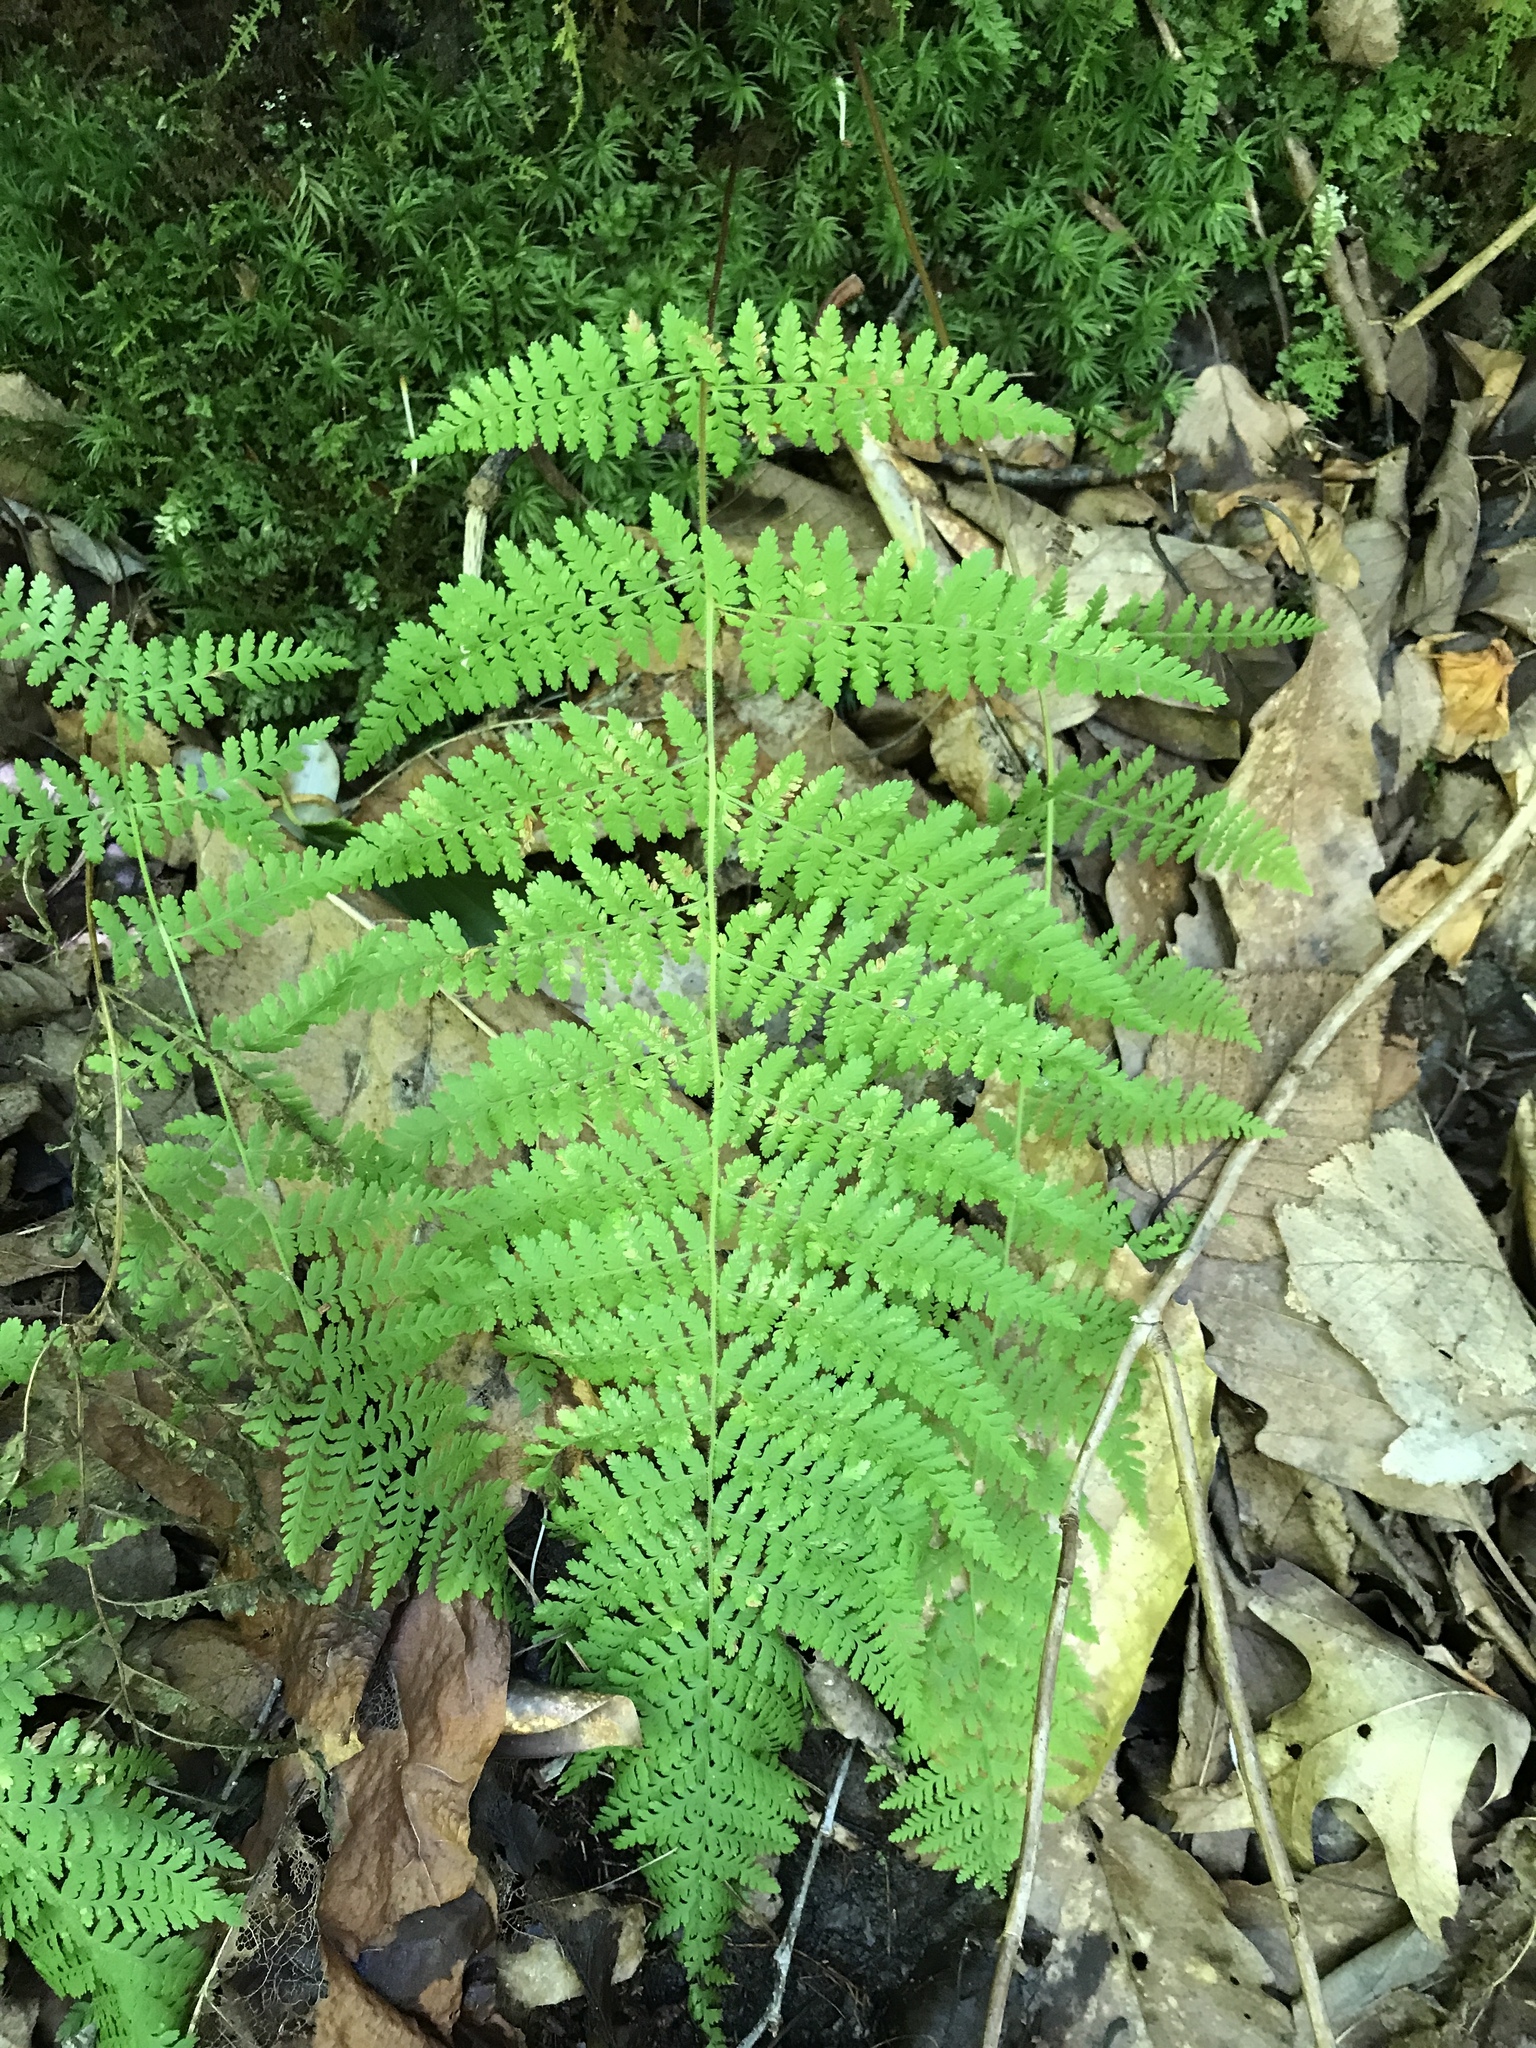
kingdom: Plantae
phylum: Tracheophyta
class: Polypodiopsida
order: Polypodiales
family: Dennstaedtiaceae
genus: Sitobolium
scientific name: Sitobolium punctilobum
